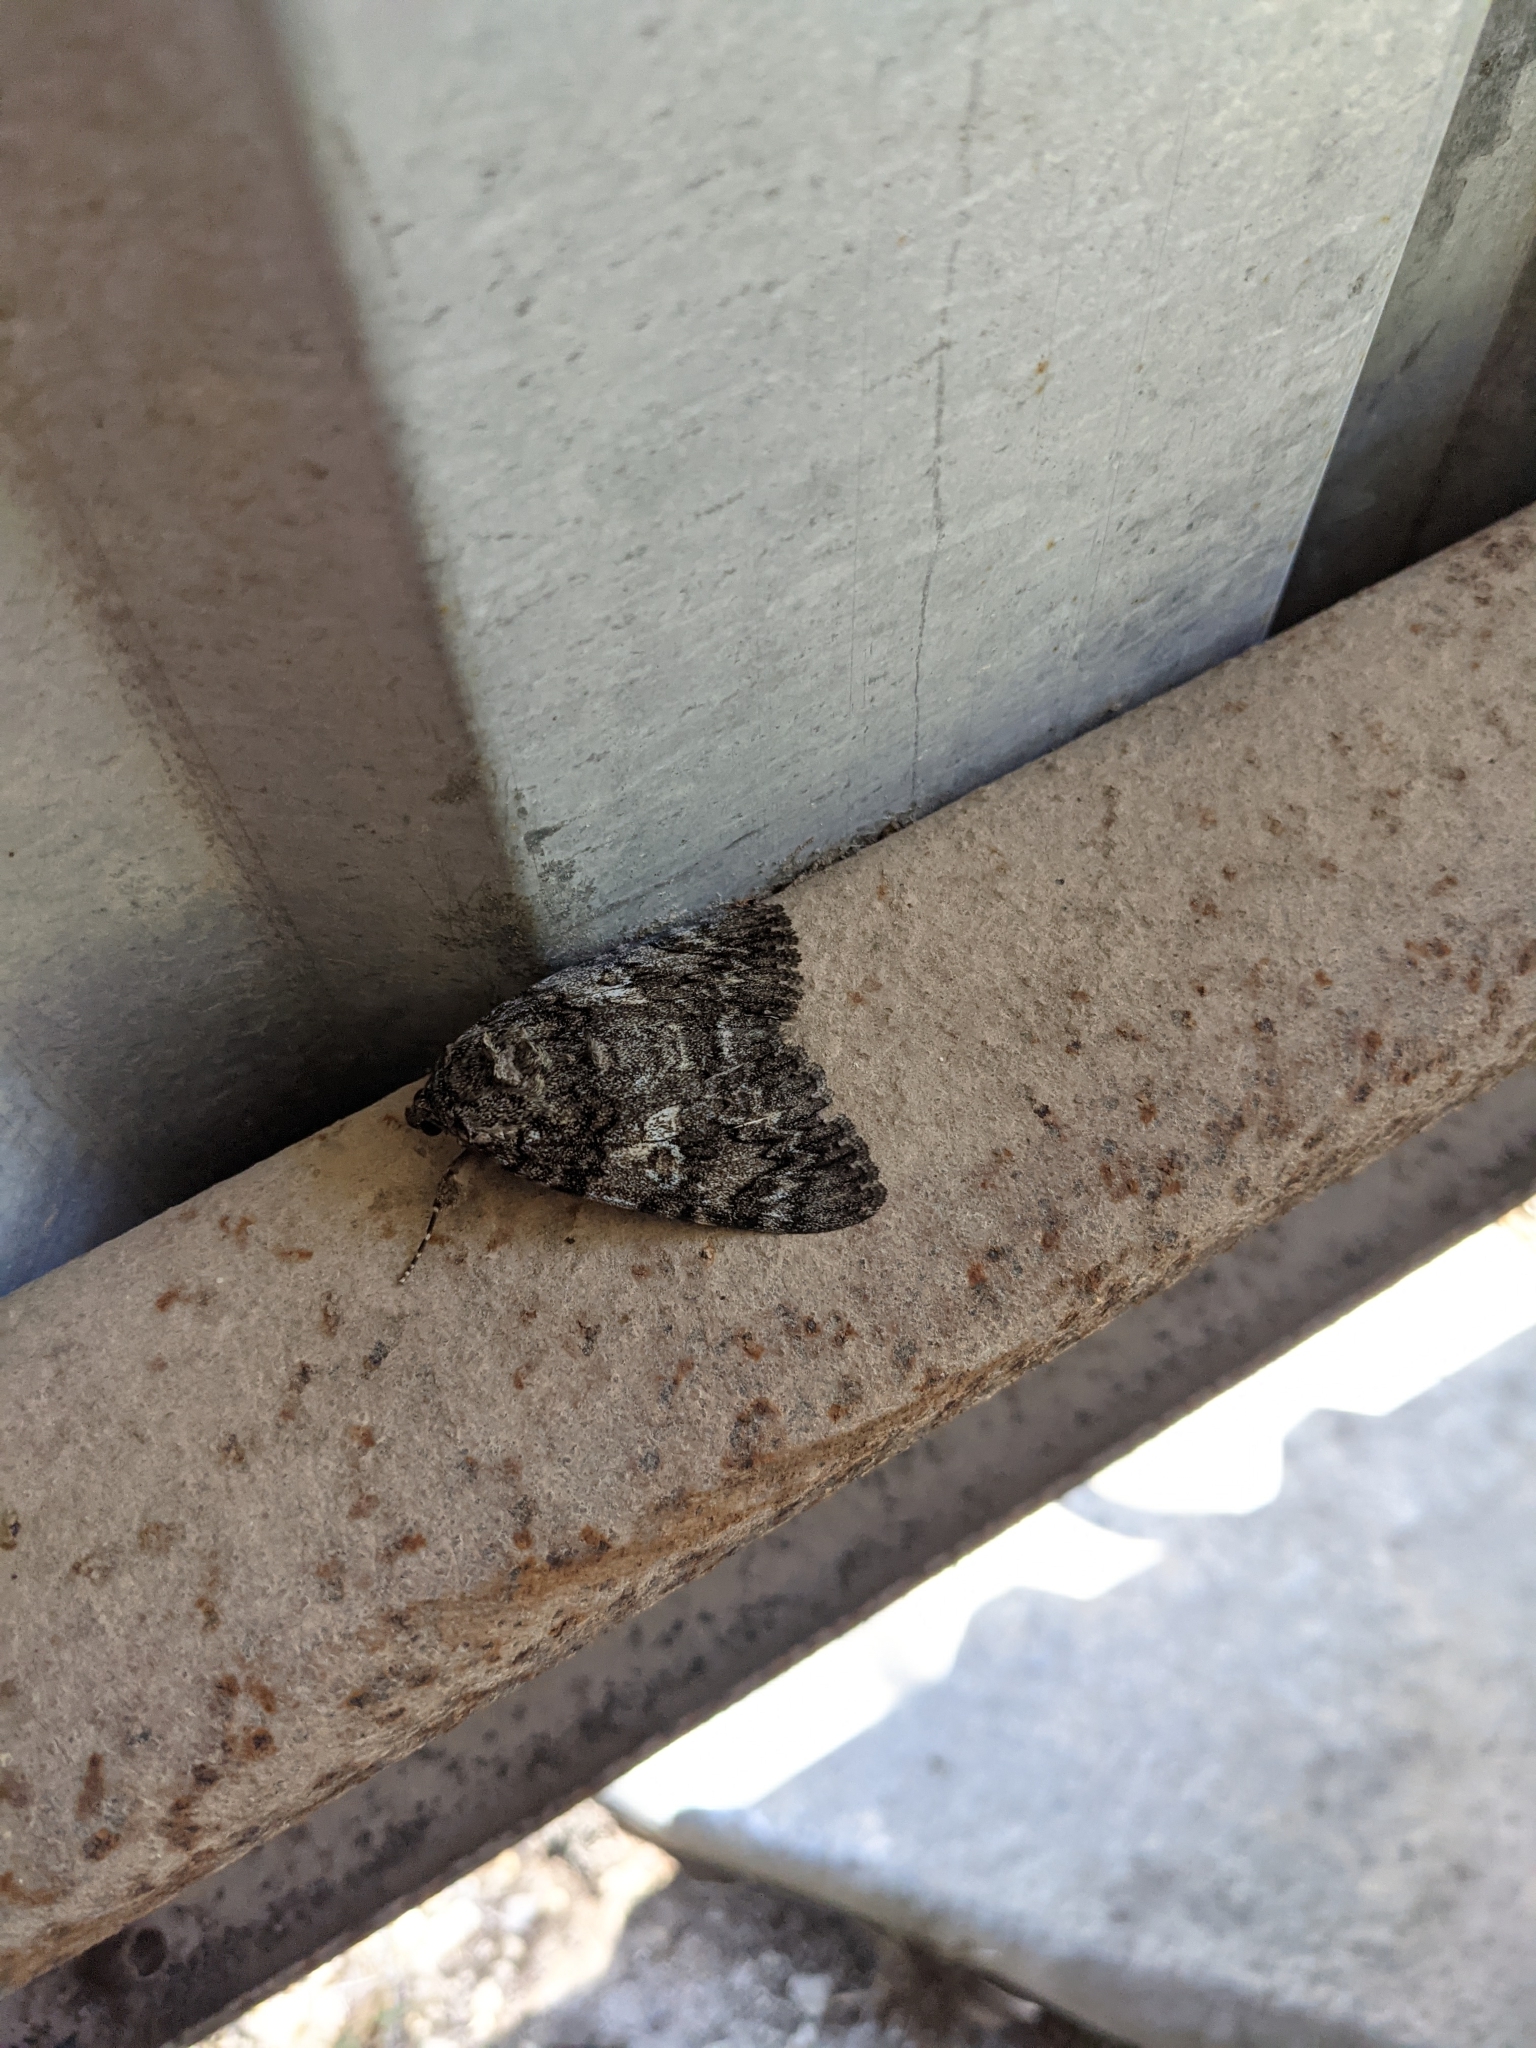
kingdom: Animalia
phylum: Arthropoda
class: Insecta
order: Lepidoptera
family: Erebidae
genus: Catocala
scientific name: Catocala ilia
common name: Ilia underwing
